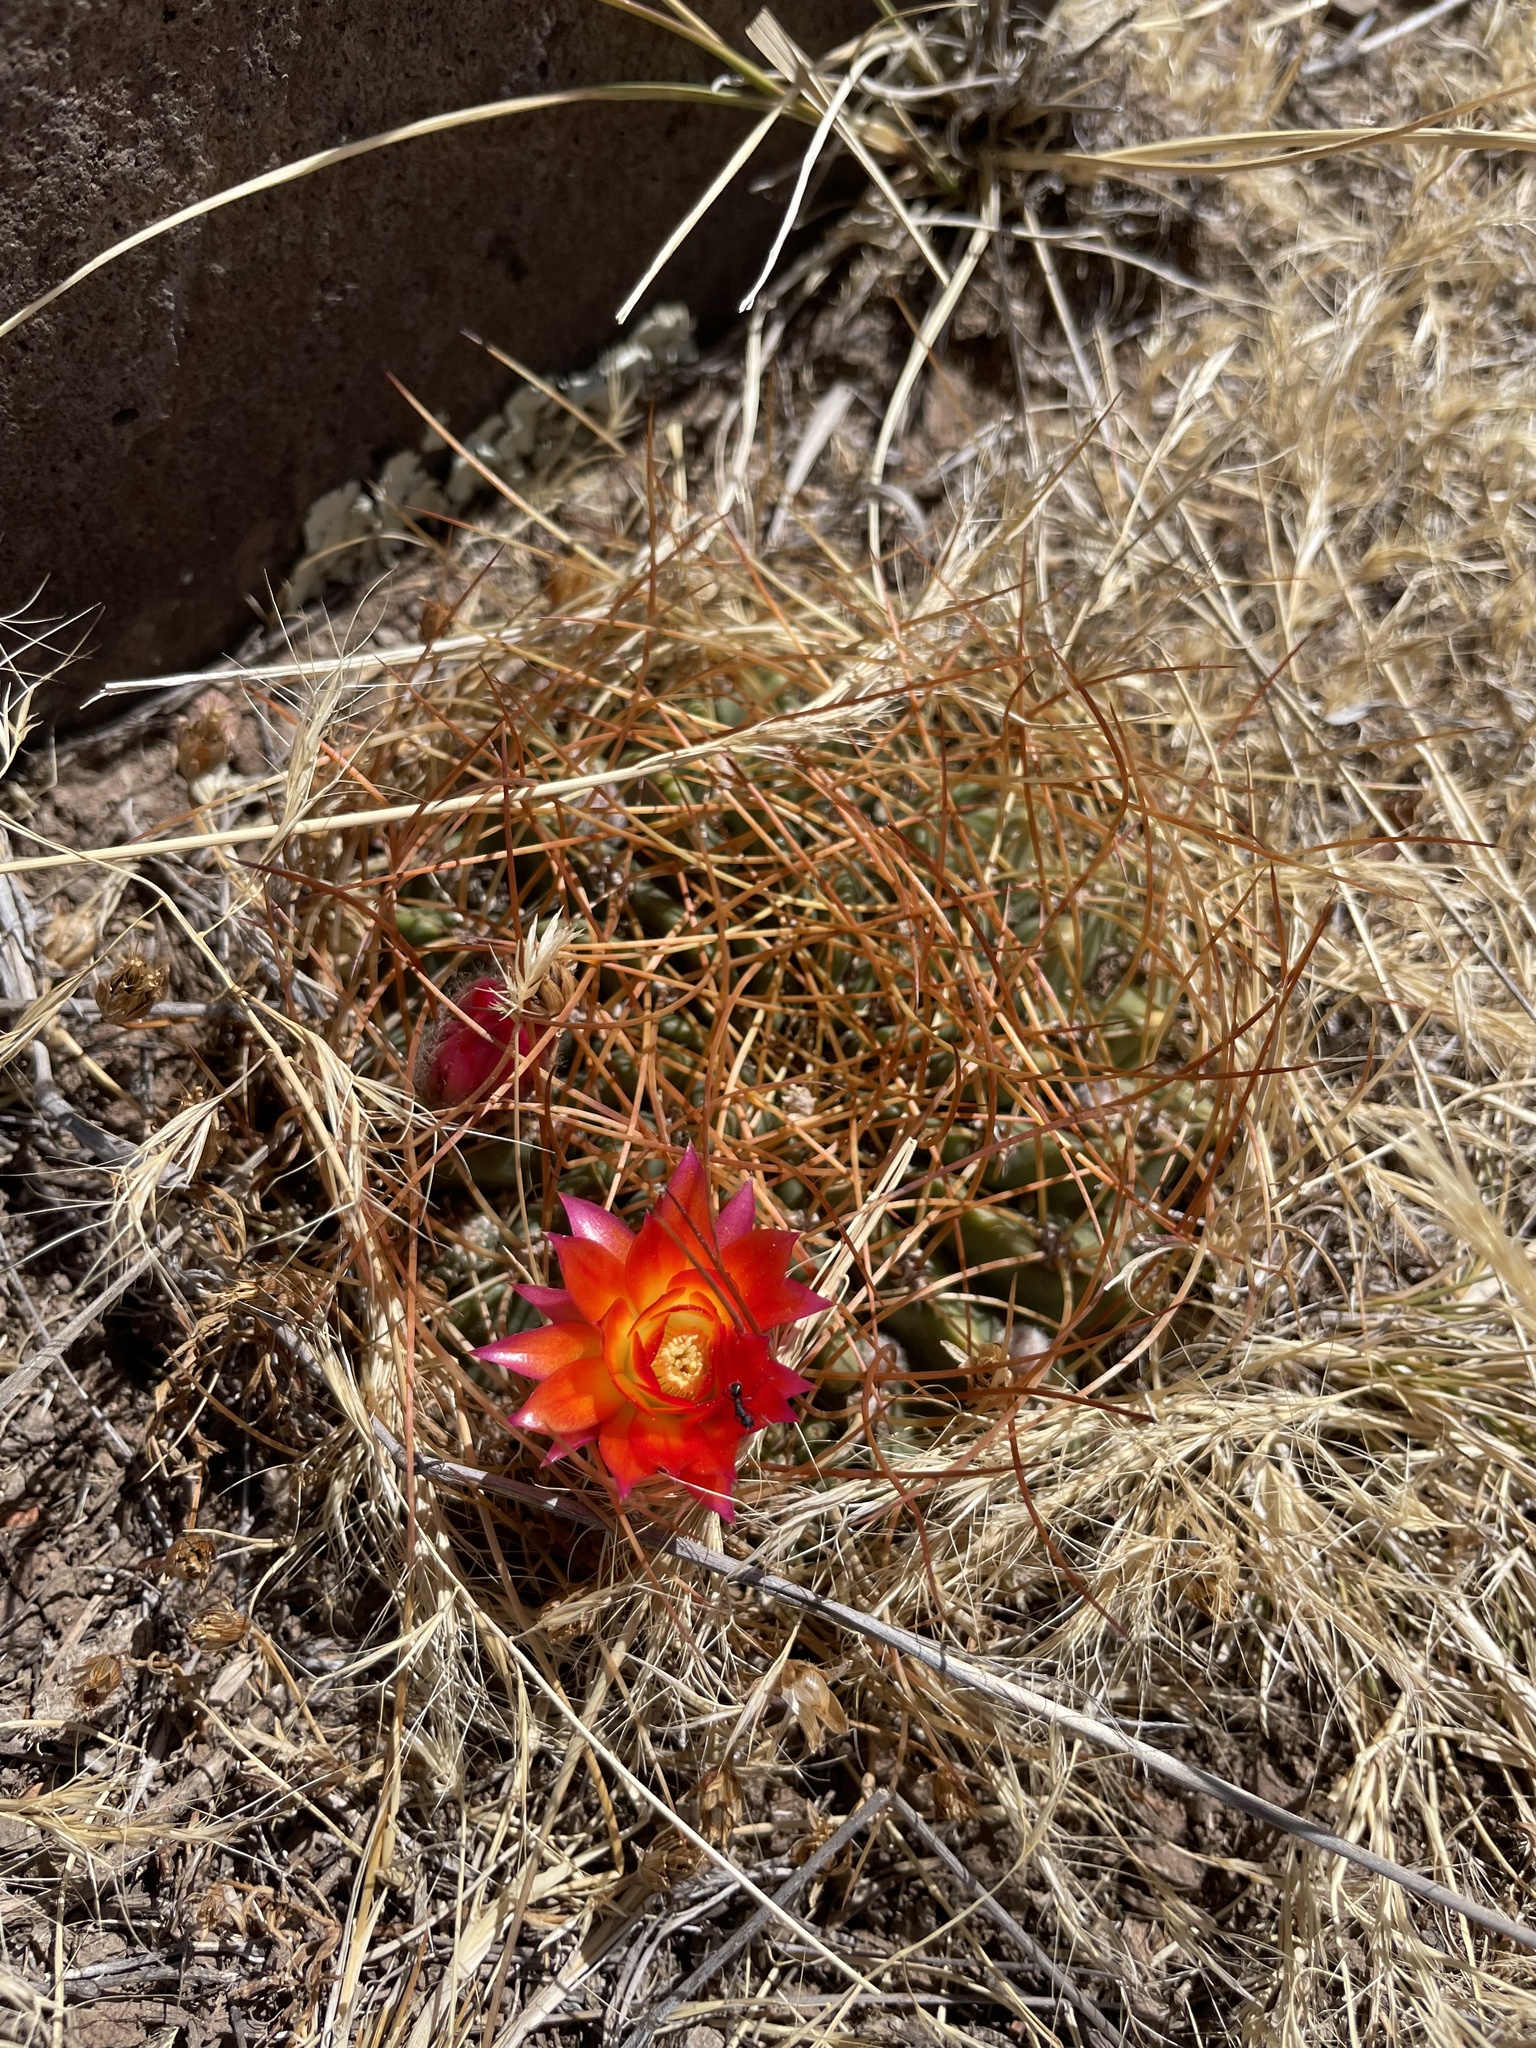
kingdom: Plantae
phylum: Tracheophyta
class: Magnoliopsida
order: Caryophyllales
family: Cactaceae
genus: Lobivia
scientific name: Lobivia maximiliana
